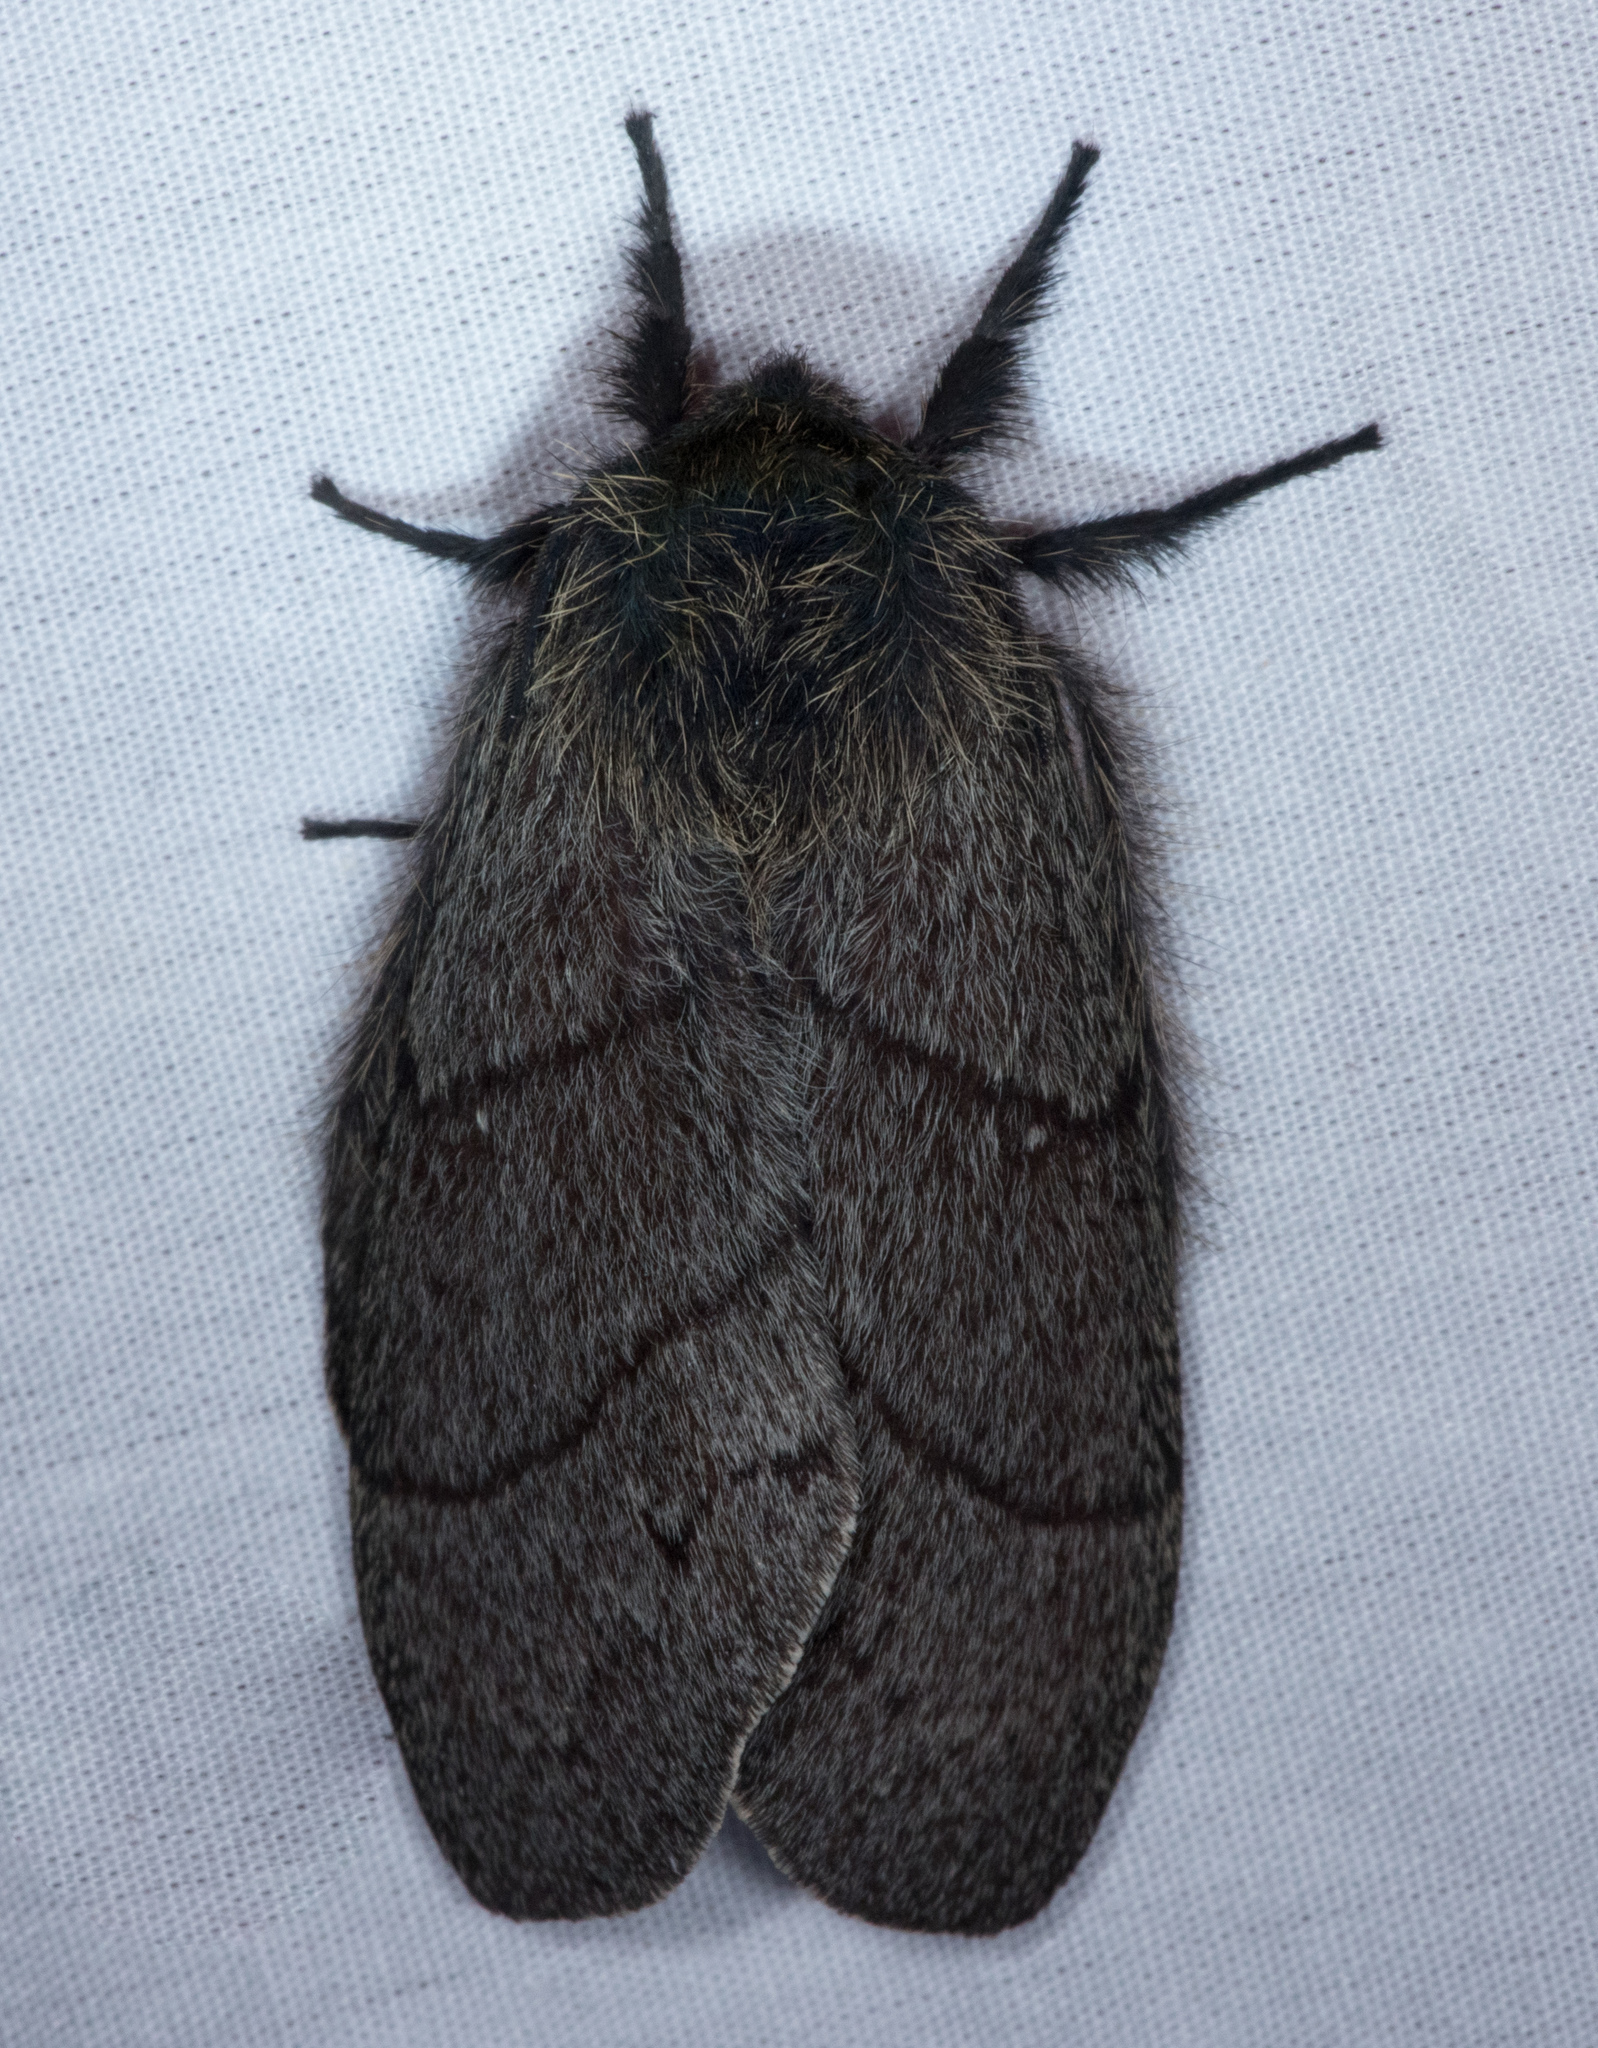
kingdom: Animalia
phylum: Arthropoda
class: Insecta
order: Lepidoptera
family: Lasiocampidae
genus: Gloveria
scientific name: Gloveria gargamelle
